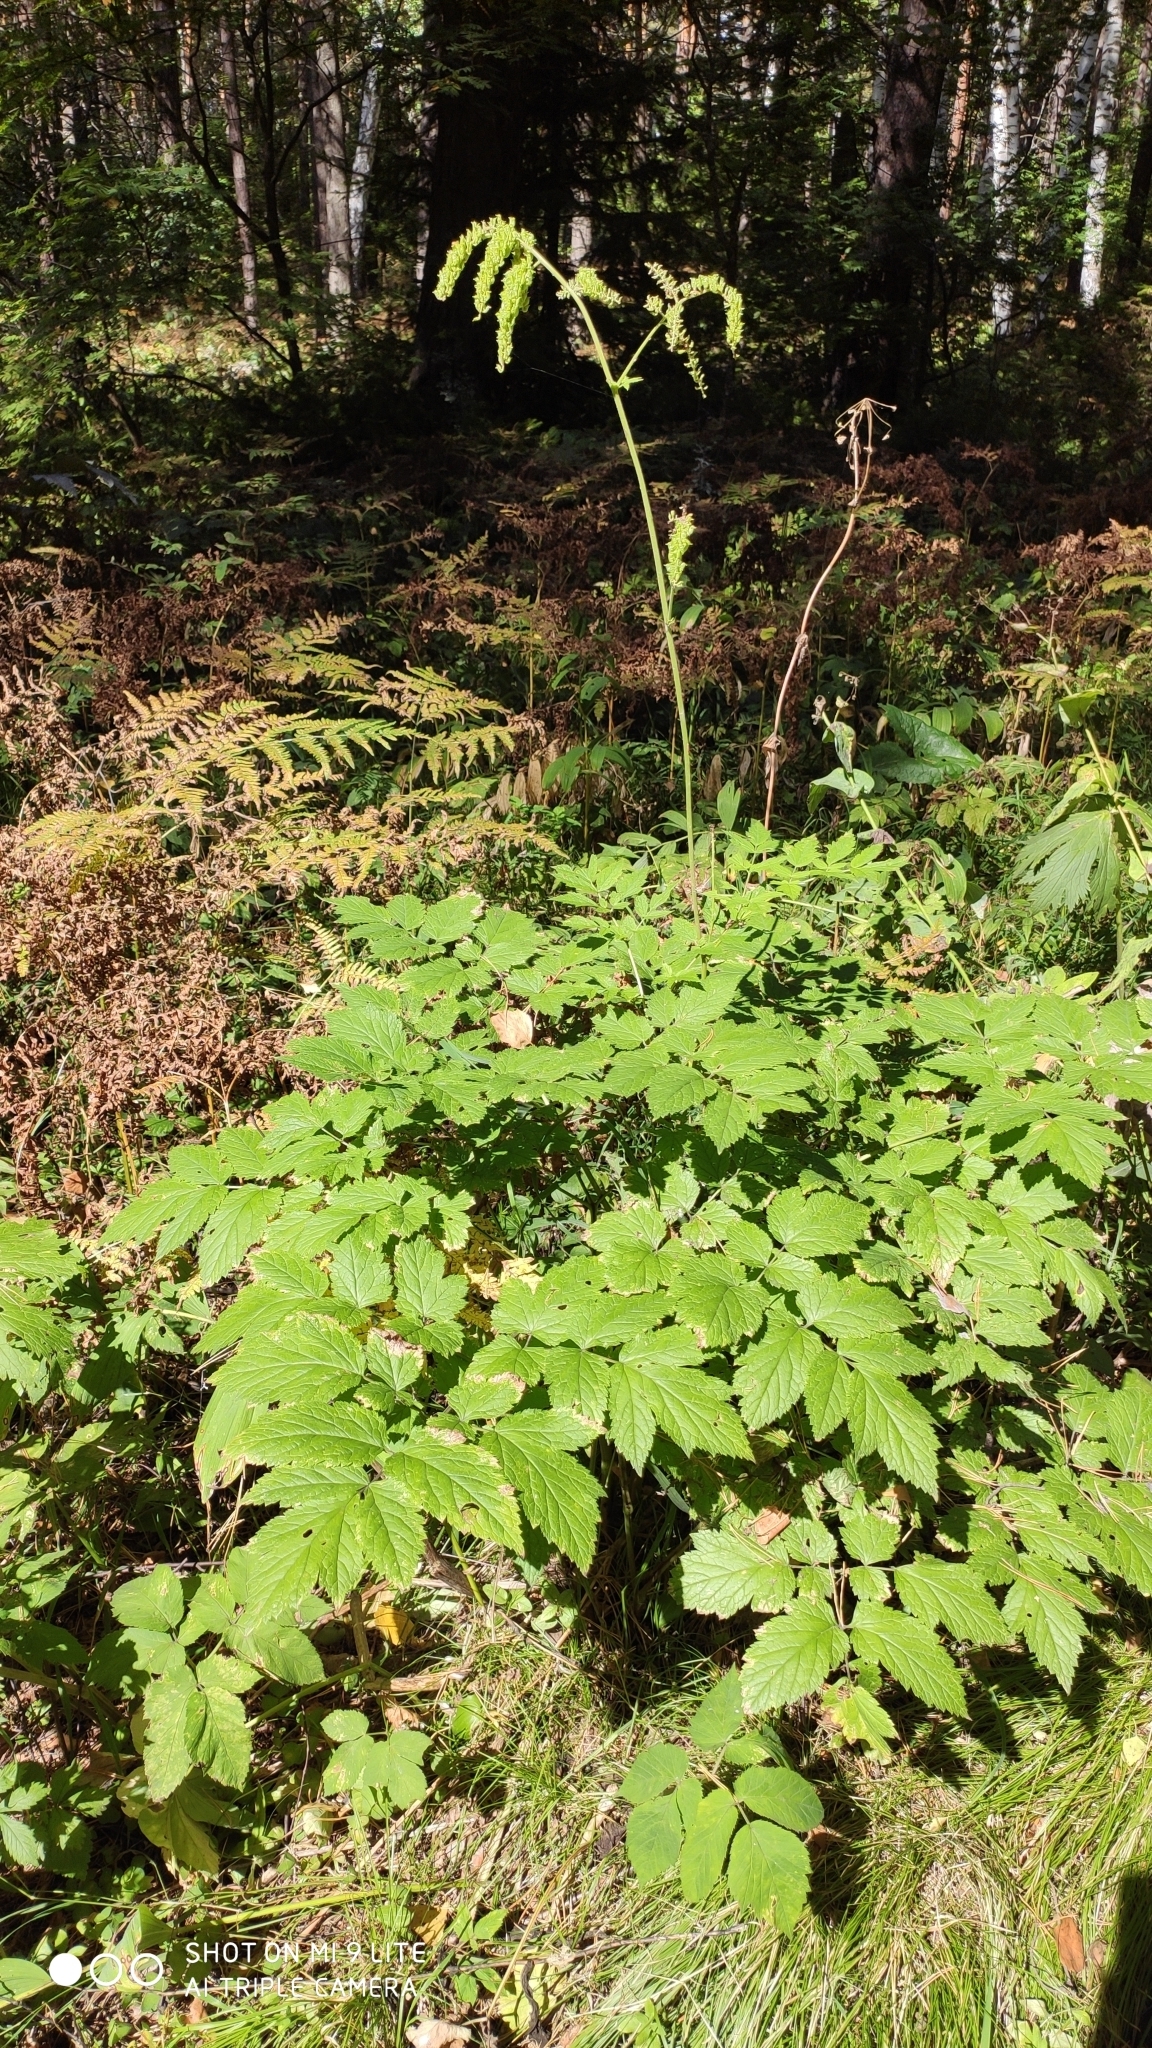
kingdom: Plantae
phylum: Tracheophyta
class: Magnoliopsida
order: Ranunculales
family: Ranunculaceae
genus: Actaea
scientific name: Actaea cimicifuga
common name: Chinese cimicifuga
